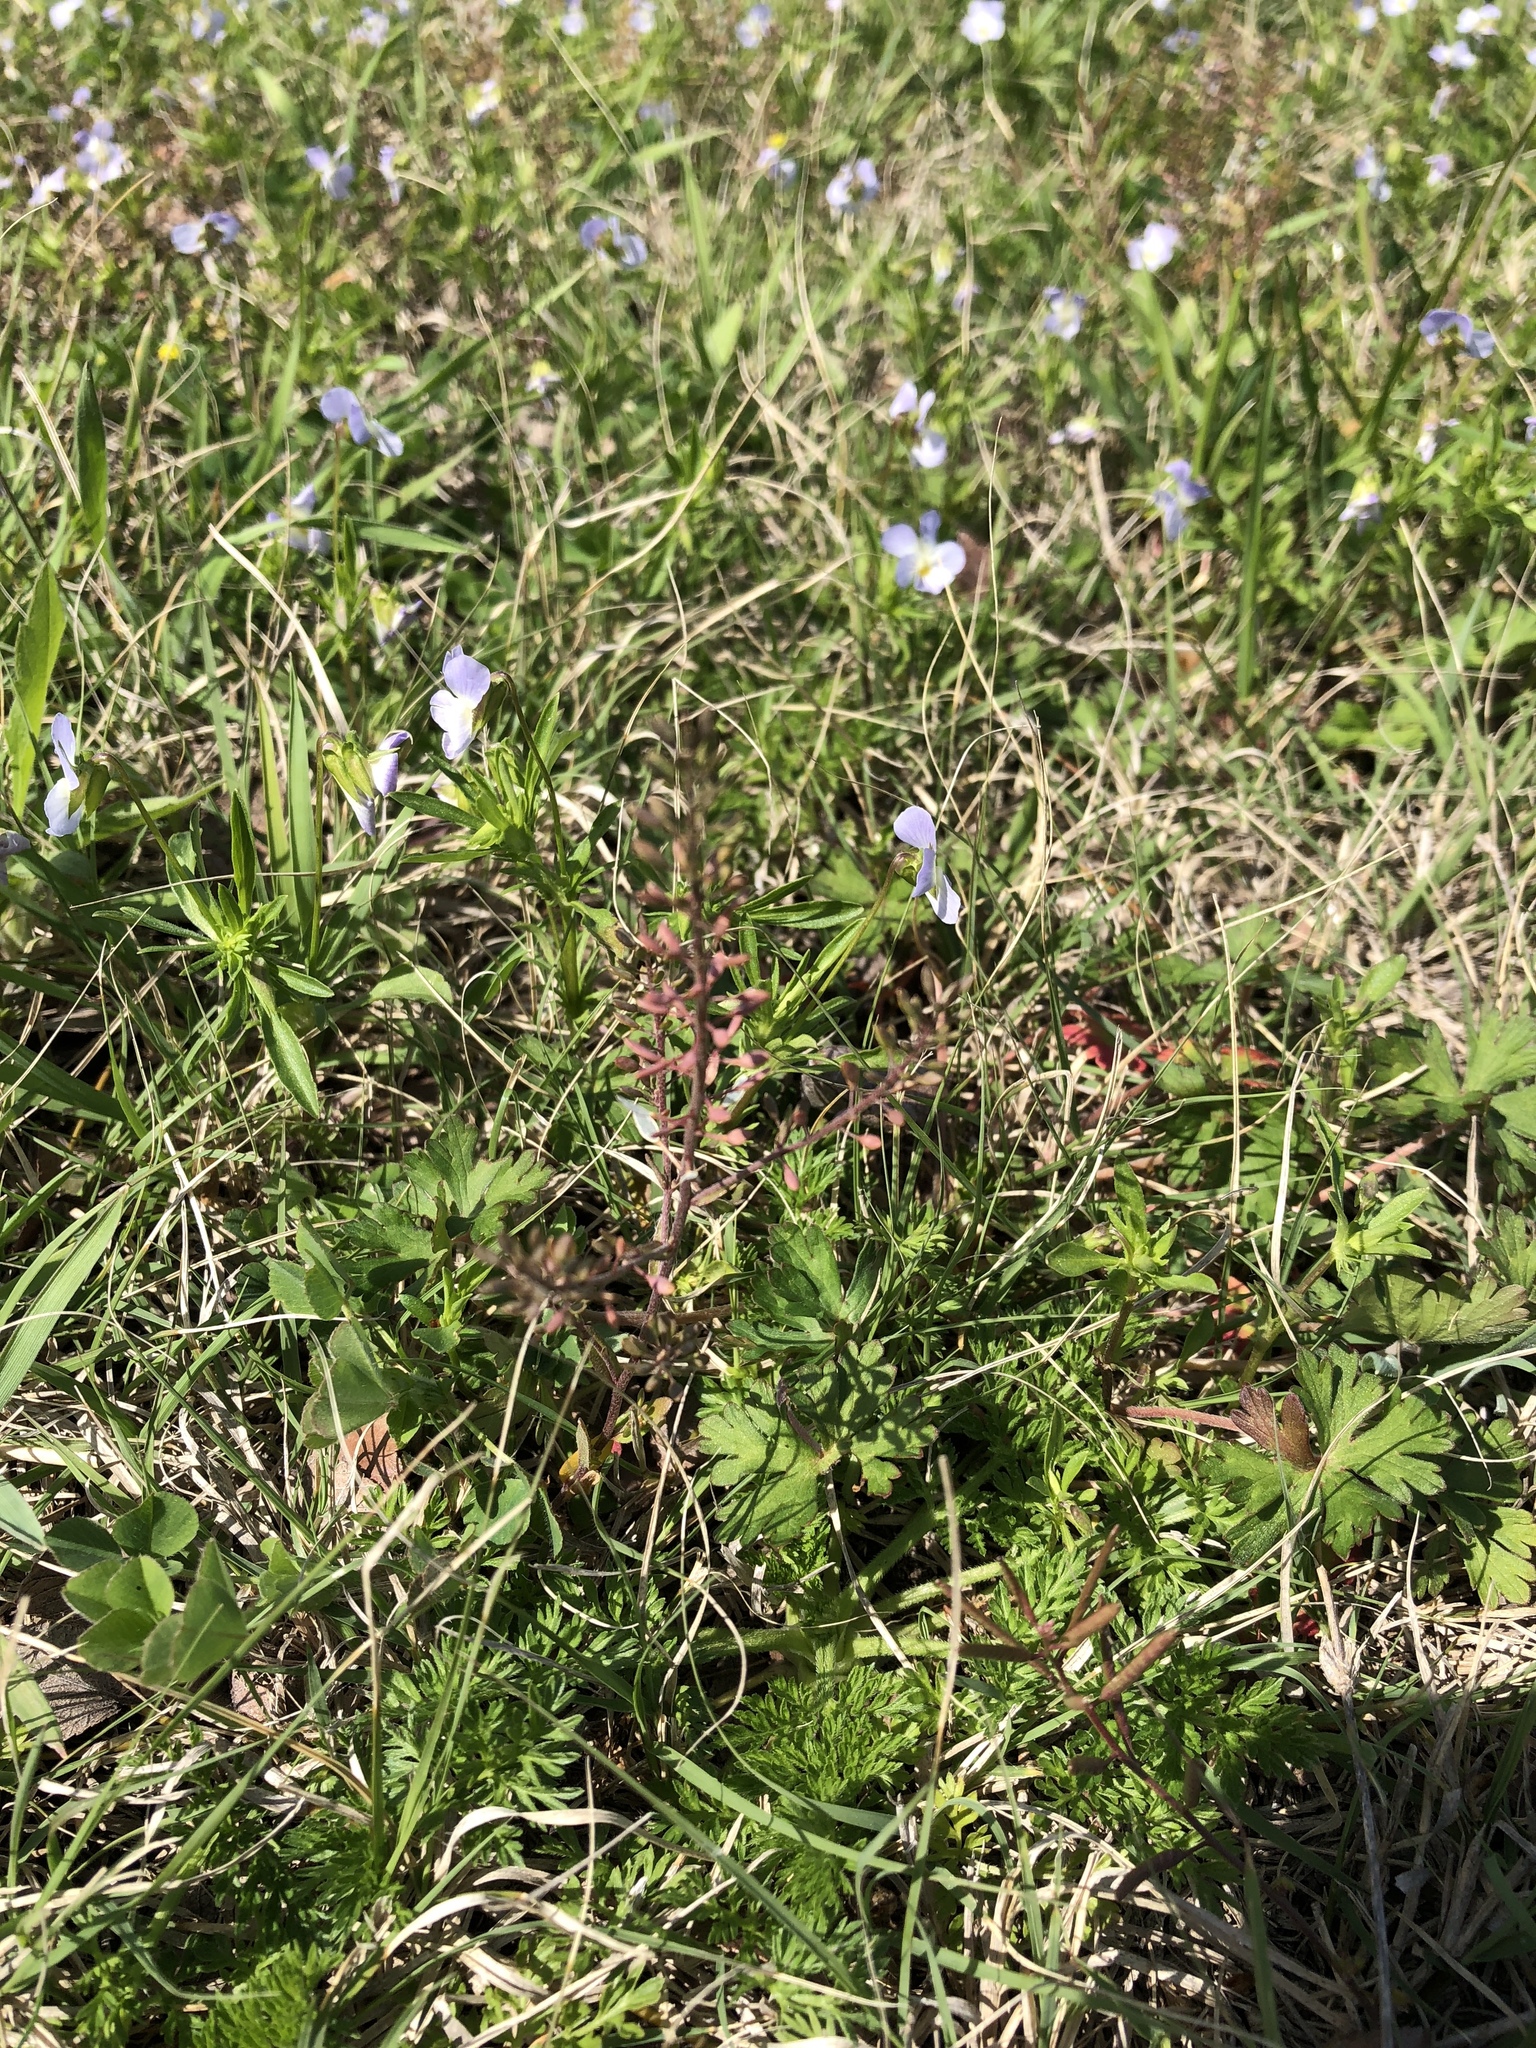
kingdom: Plantae
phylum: Tracheophyta
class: Magnoliopsida
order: Brassicales
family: Brassicaceae
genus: Abdra
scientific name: Abdra brachycarpa
